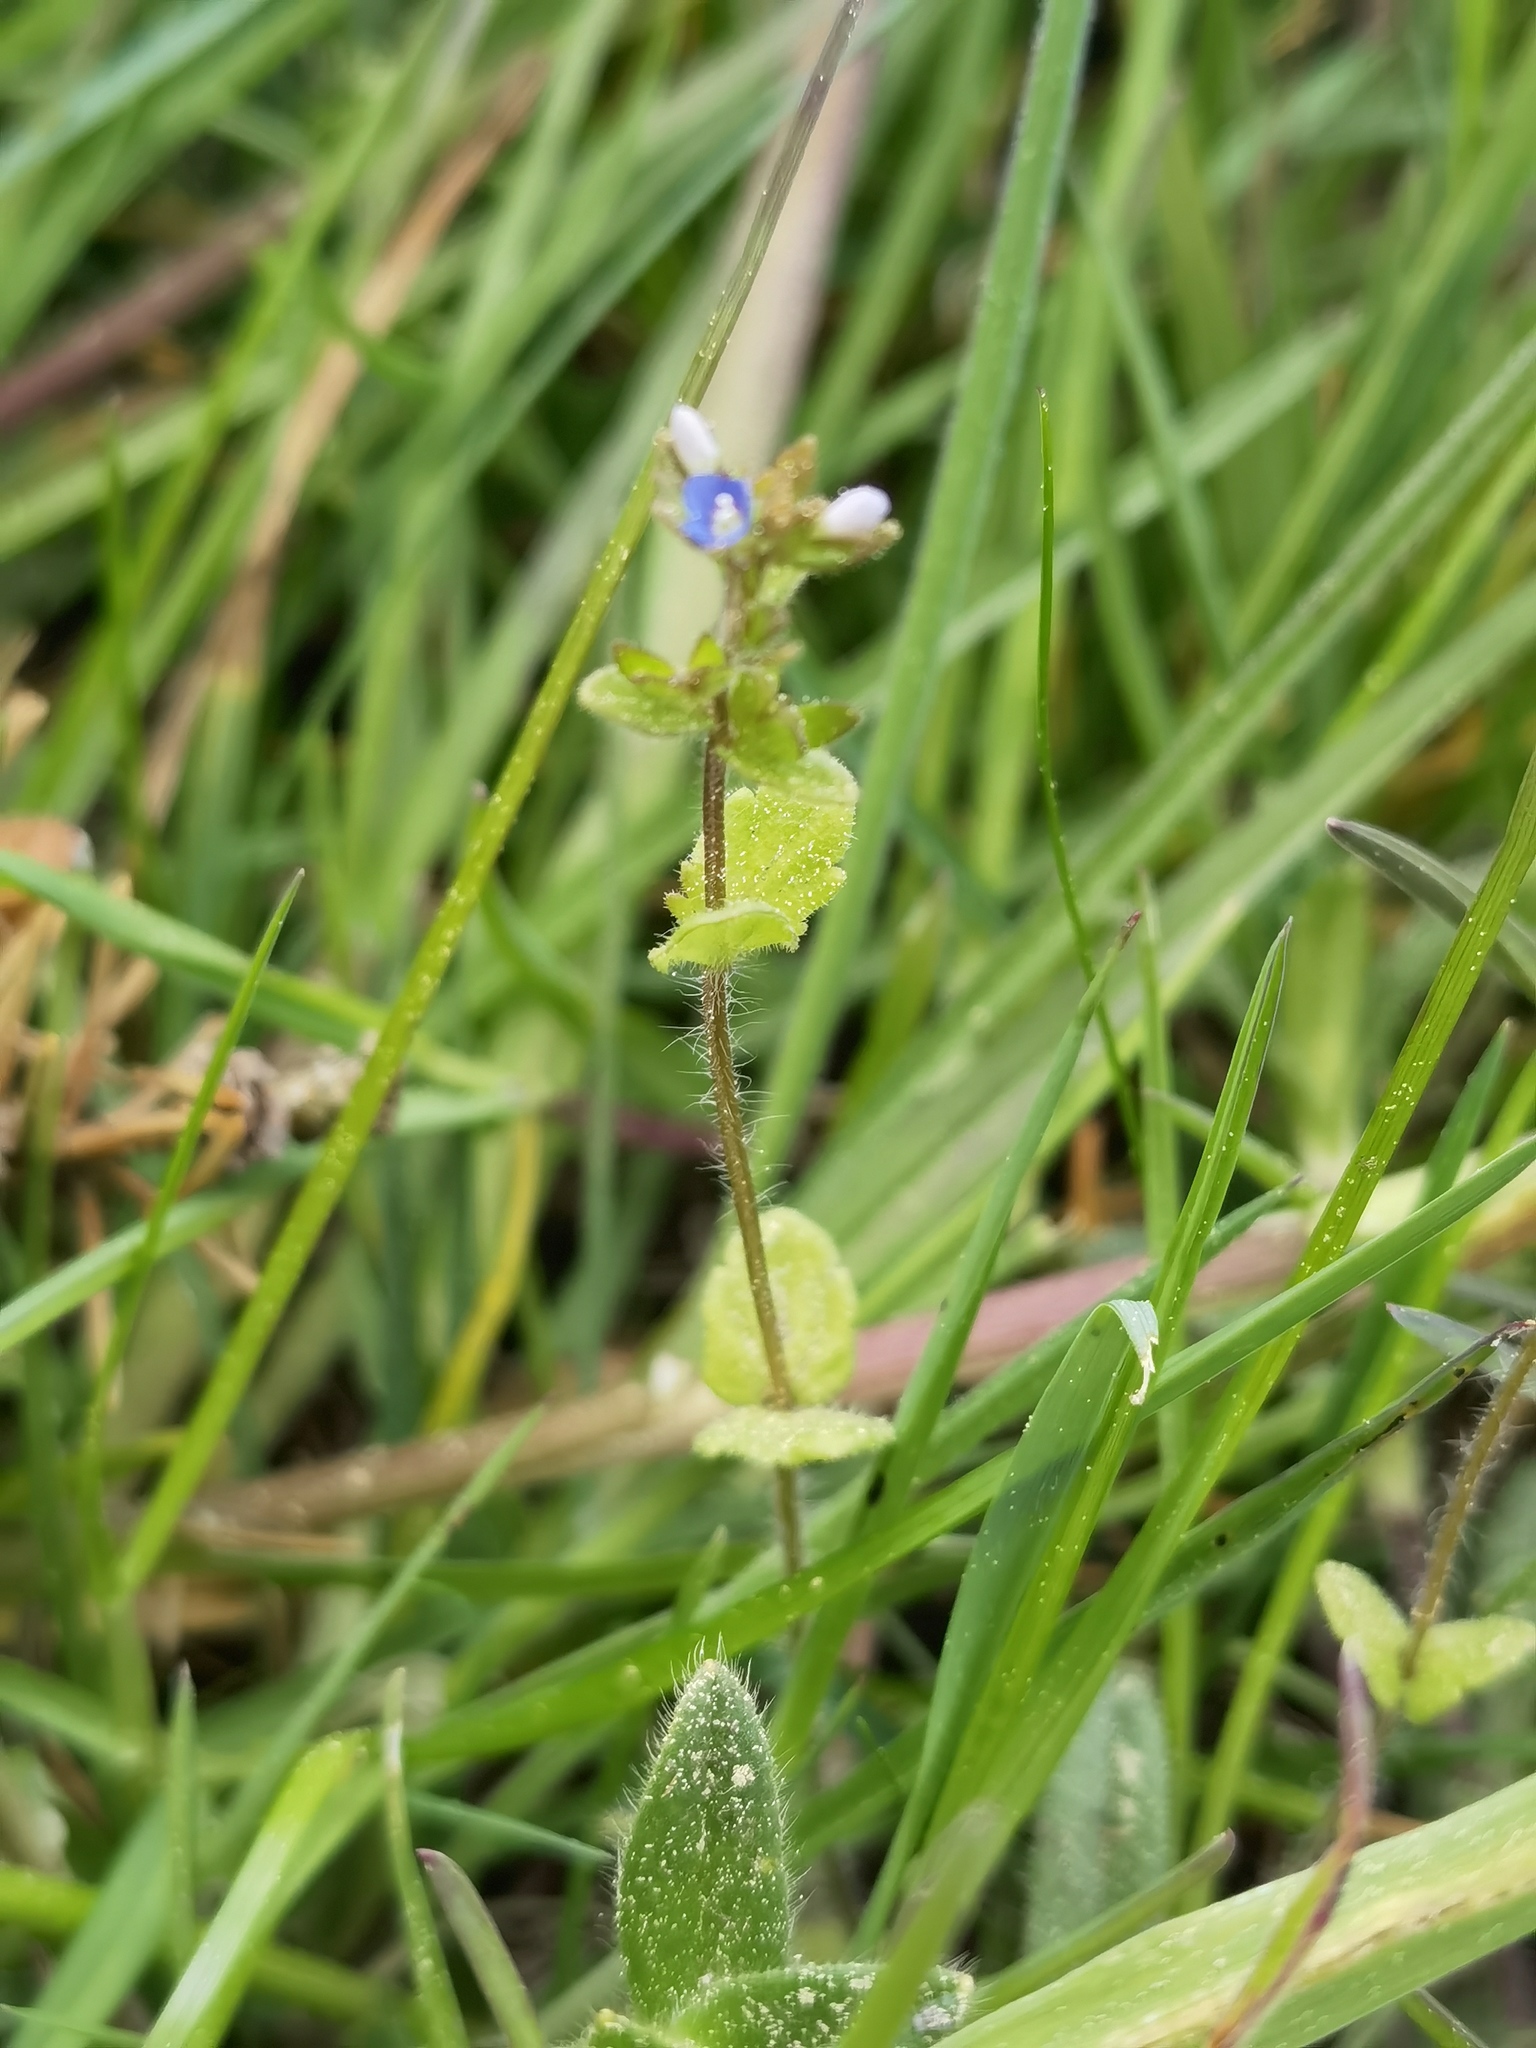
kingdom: Plantae
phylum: Tracheophyta
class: Magnoliopsida
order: Lamiales
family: Plantaginaceae
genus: Veronica
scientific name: Veronica arvensis
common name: Corn speedwell
